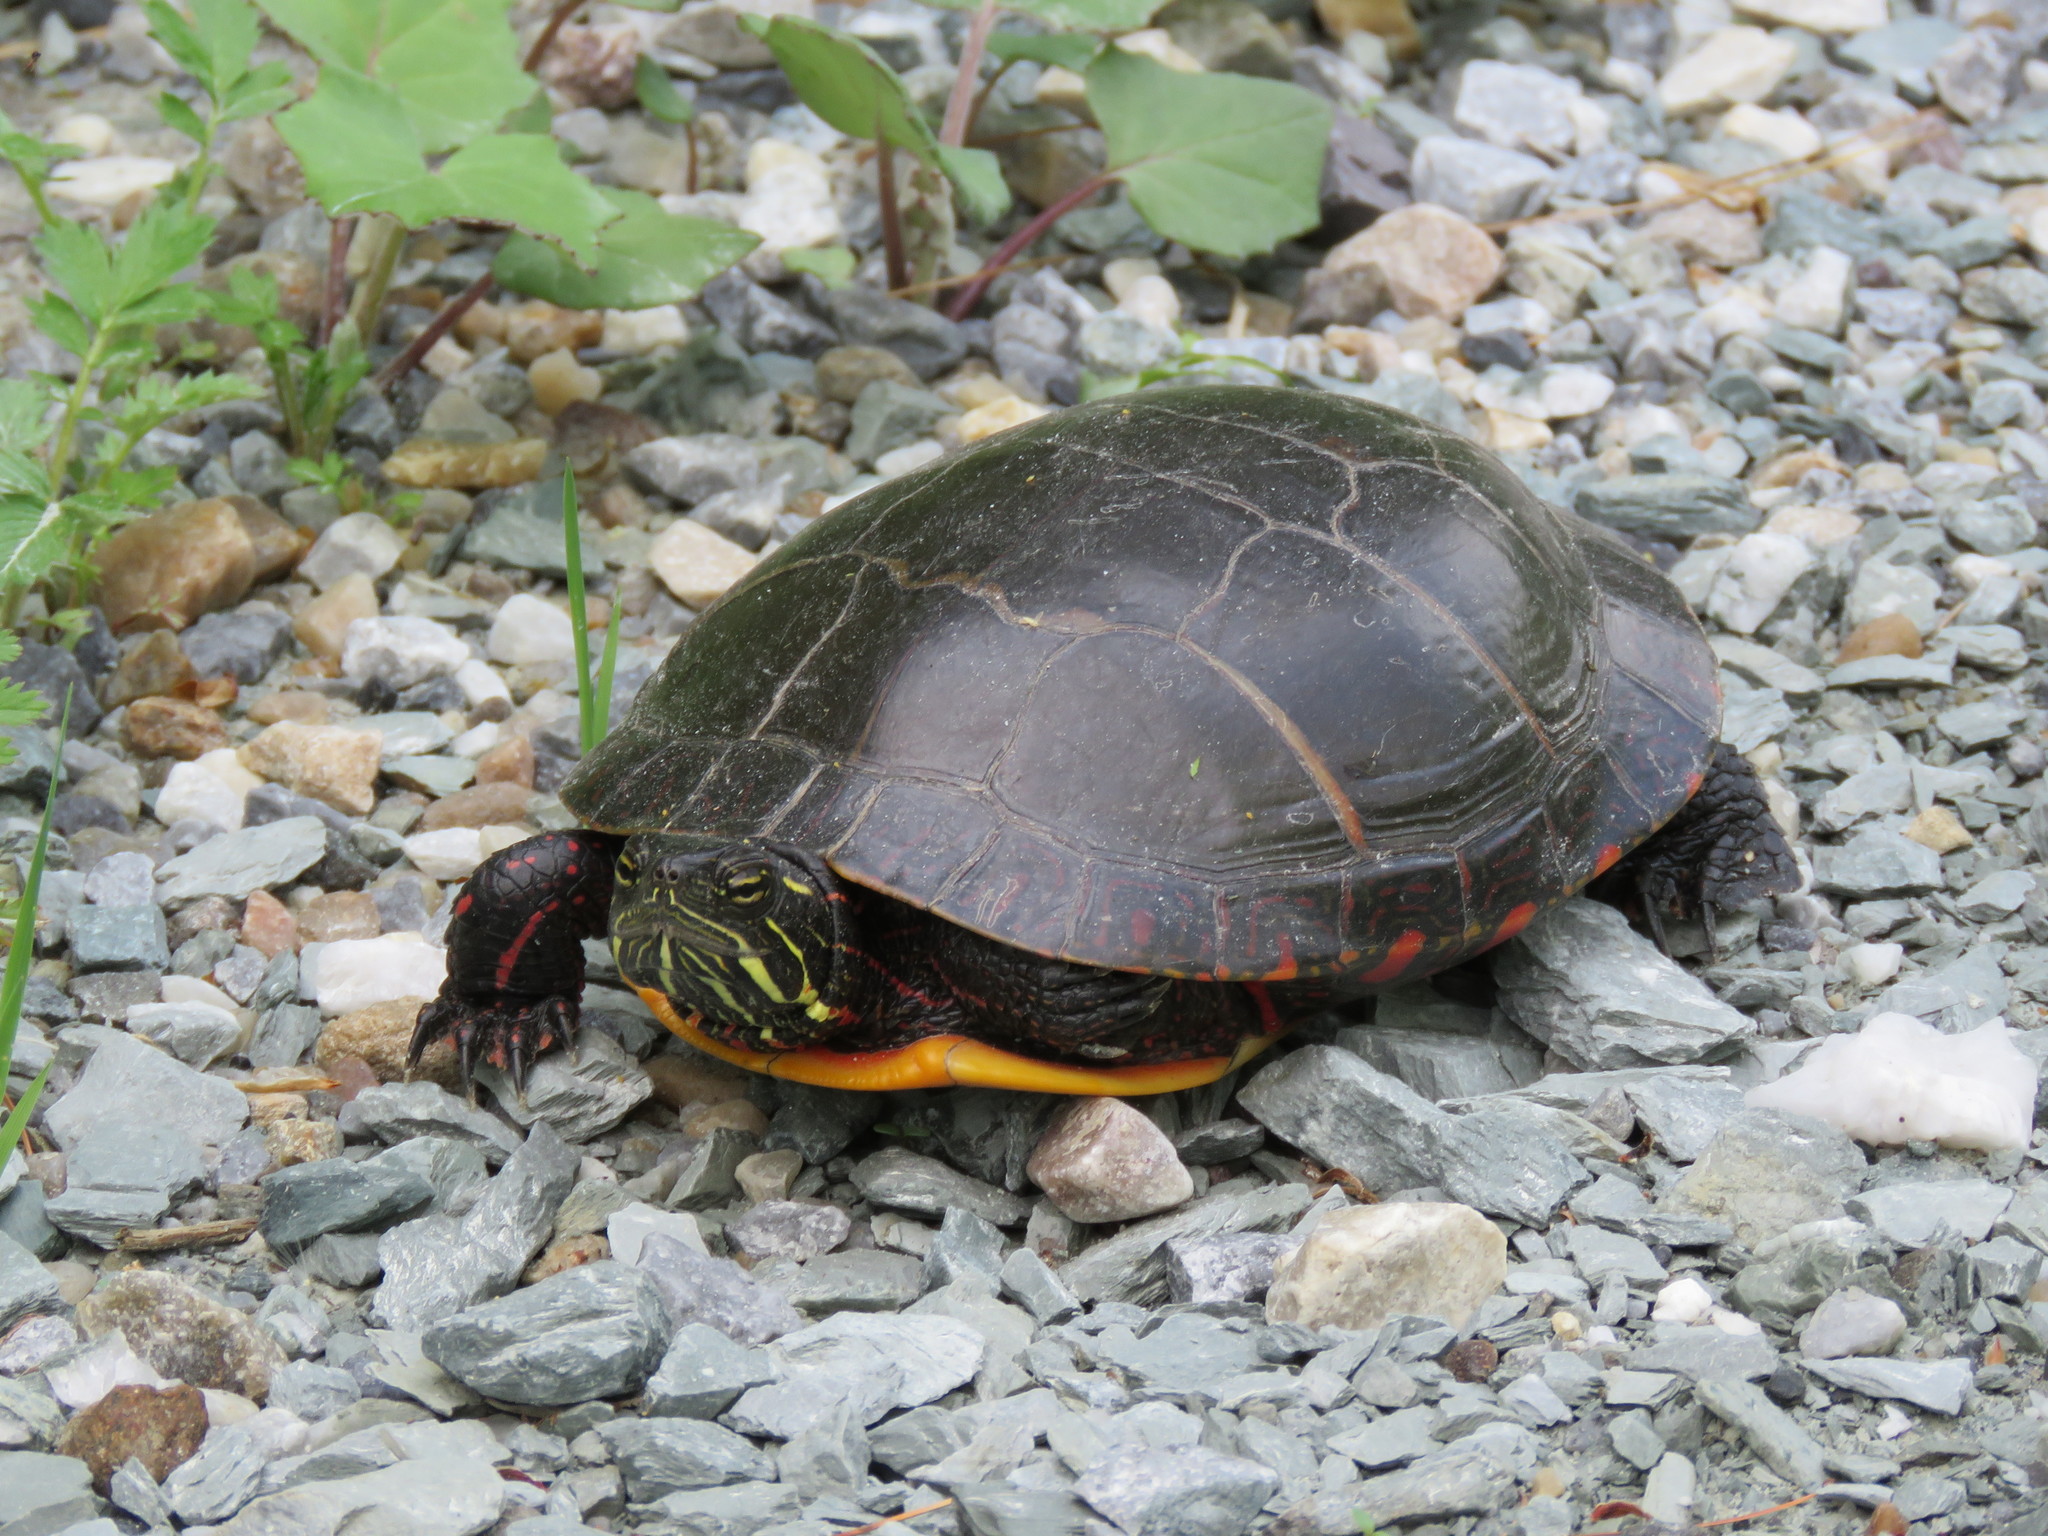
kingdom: Animalia
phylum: Chordata
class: Testudines
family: Emydidae
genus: Chrysemys
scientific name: Chrysemys picta
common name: Painted turtle
